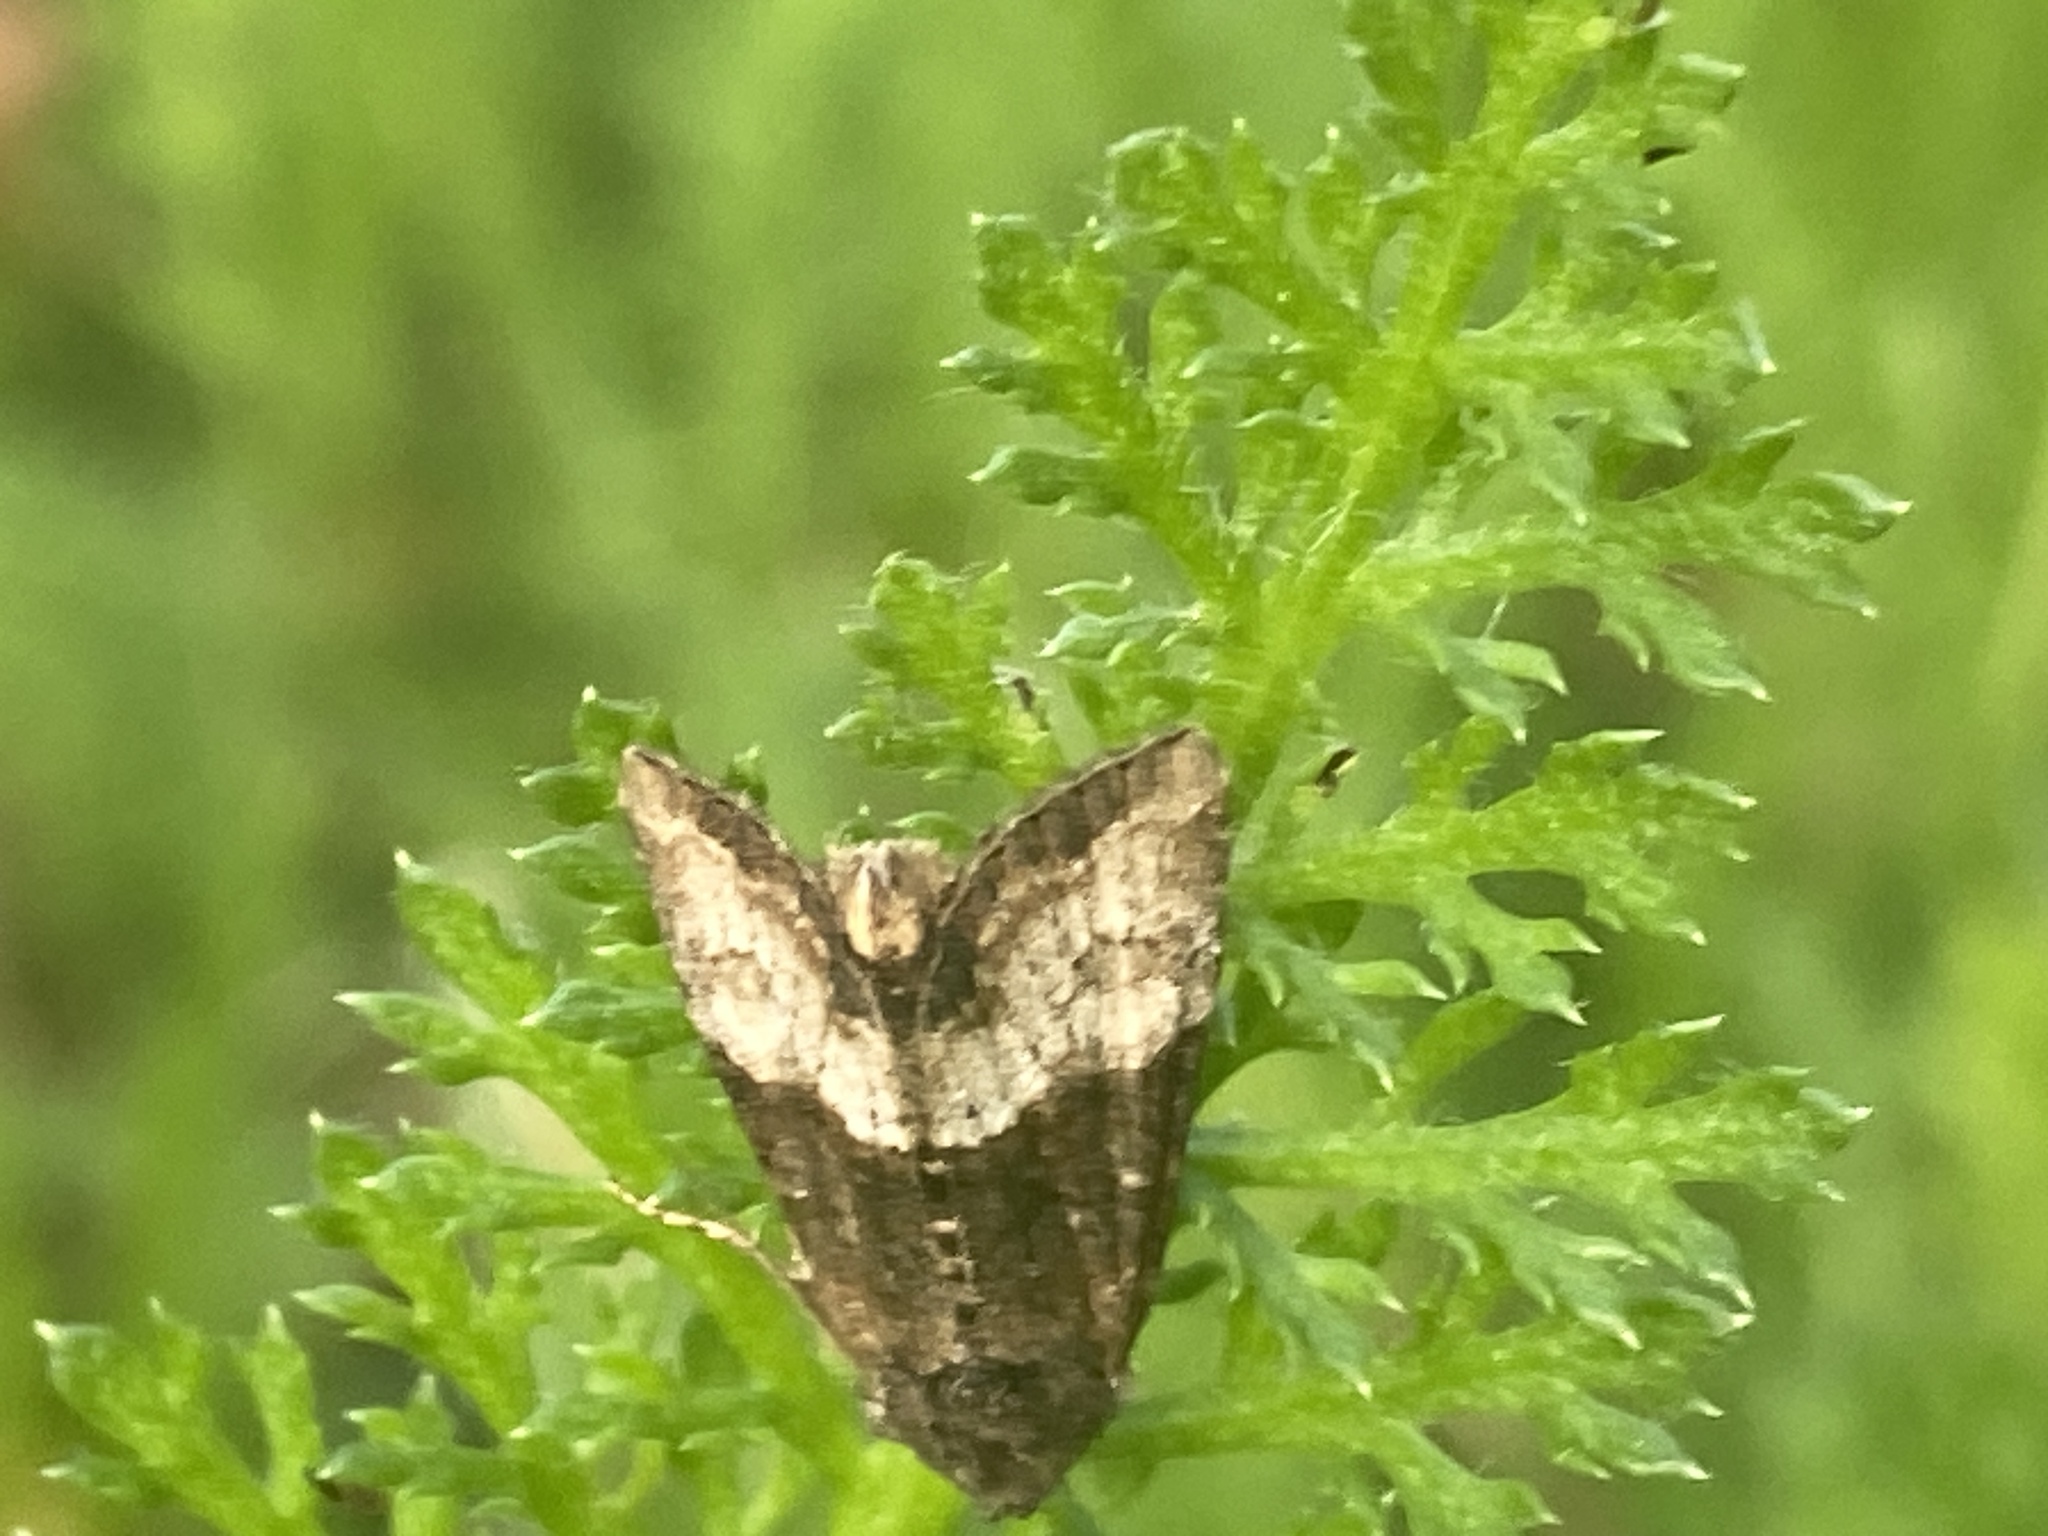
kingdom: Animalia
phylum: Arthropoda
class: Insecta
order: Lepidoptera
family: Noctuidae
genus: Mesoligia
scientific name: Mesoligia furuncula
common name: Cloaked minor
